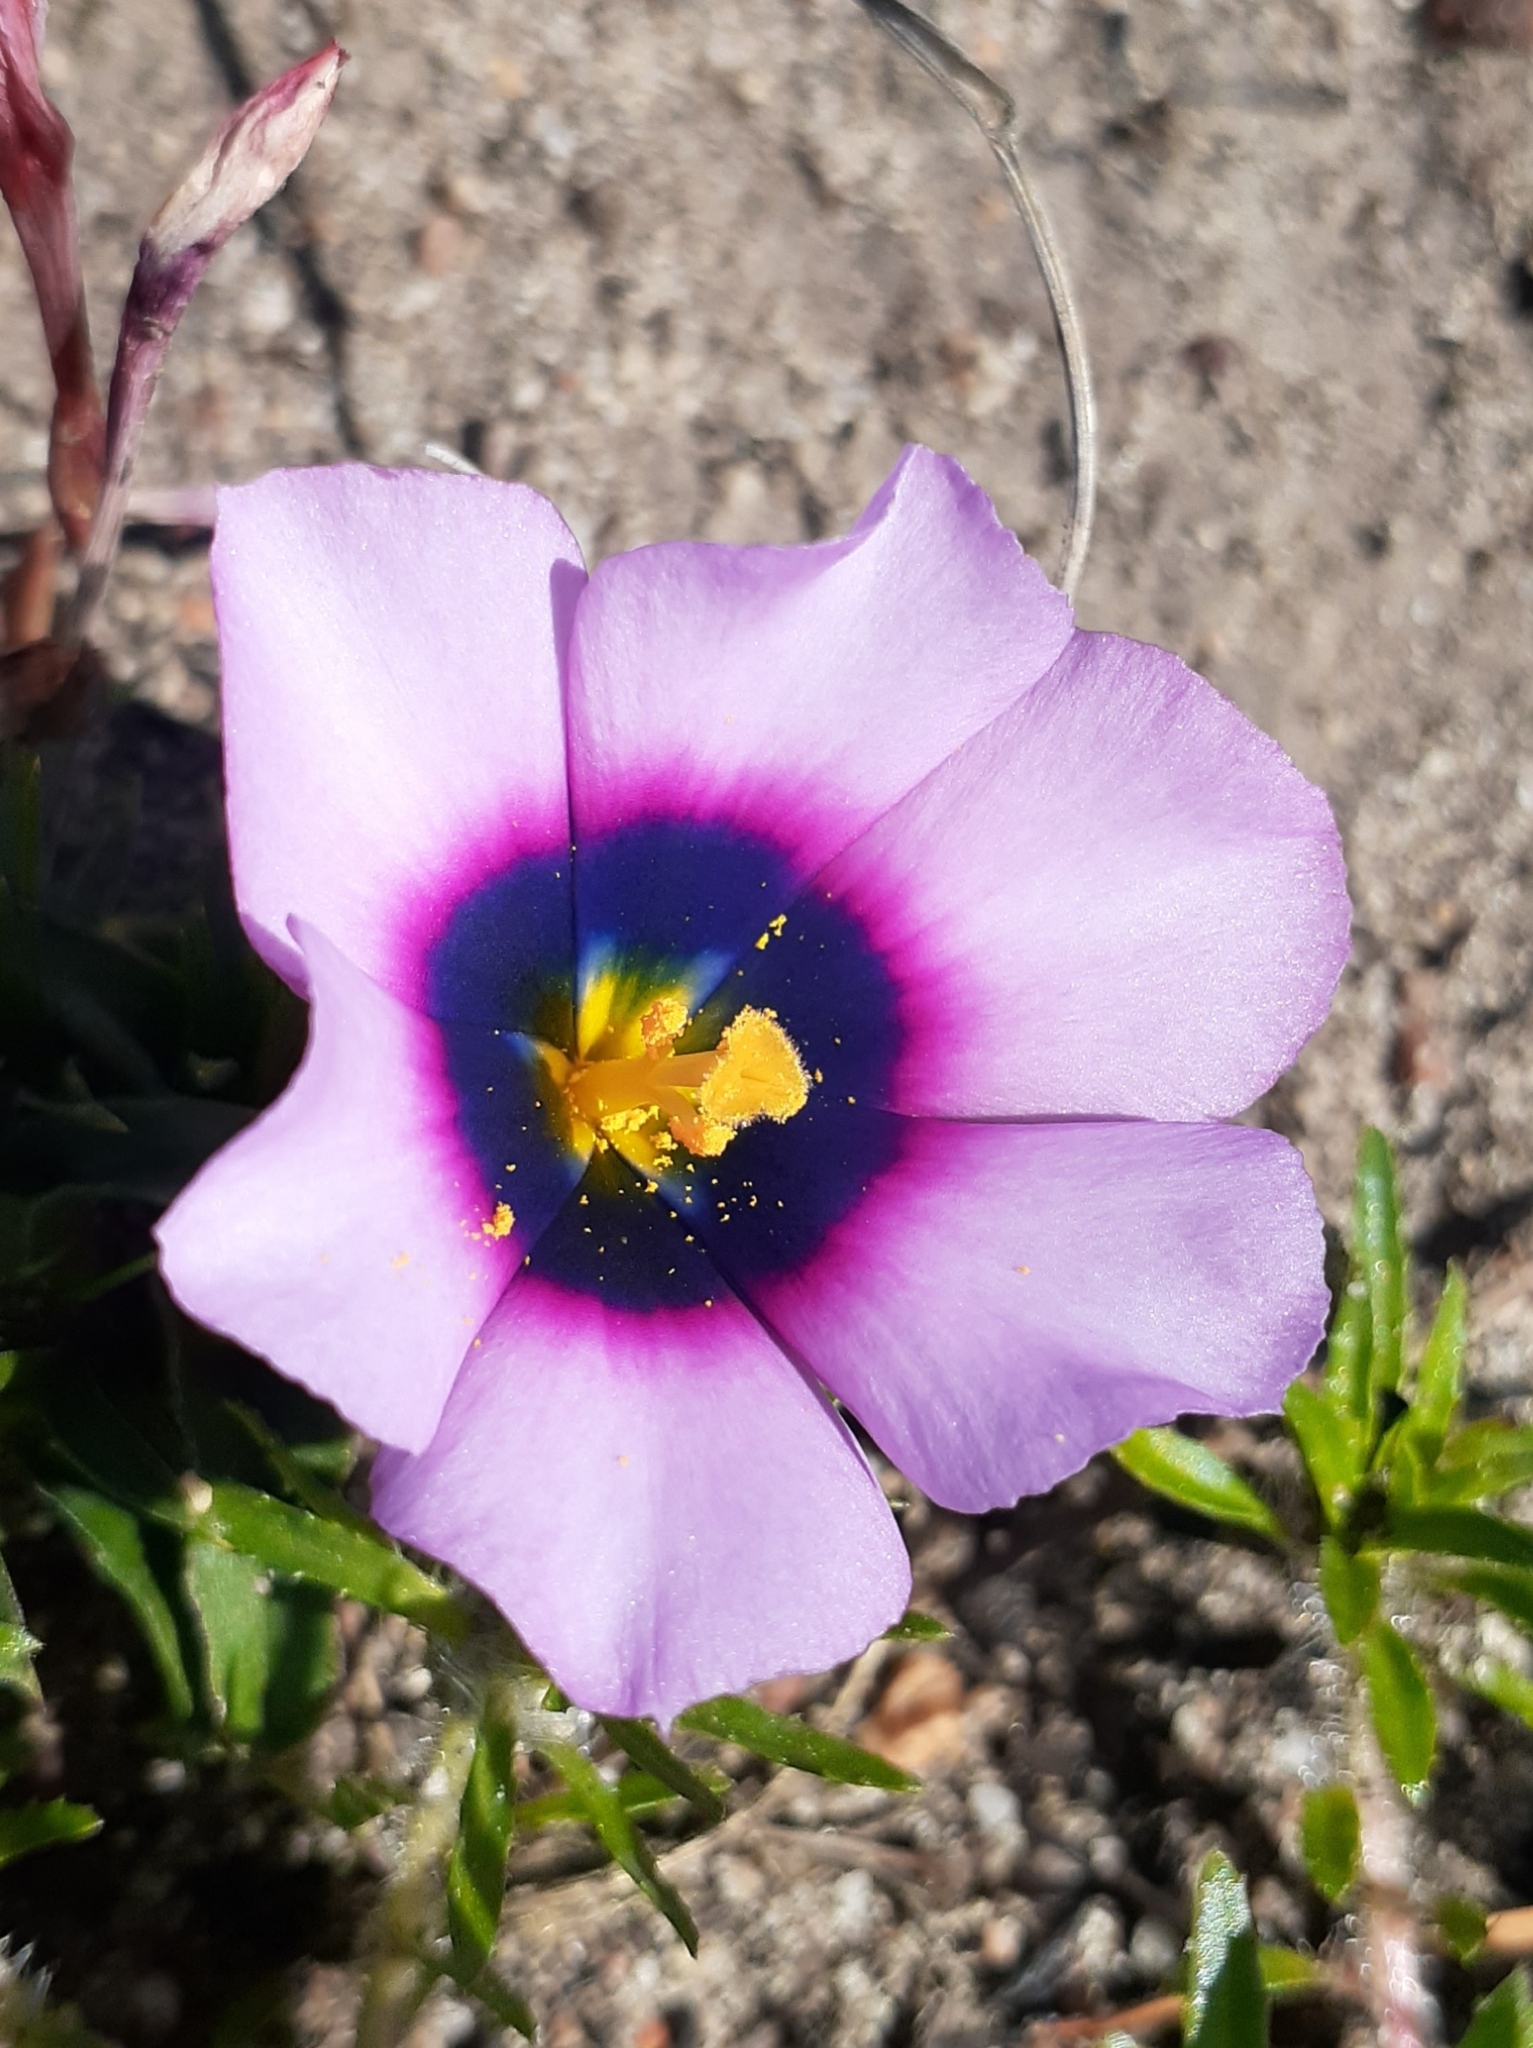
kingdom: Plantae
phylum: Tracheophyta
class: Liliopsida
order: Asparagales
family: Iridaceae
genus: Moraea
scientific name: Moraea melanops
